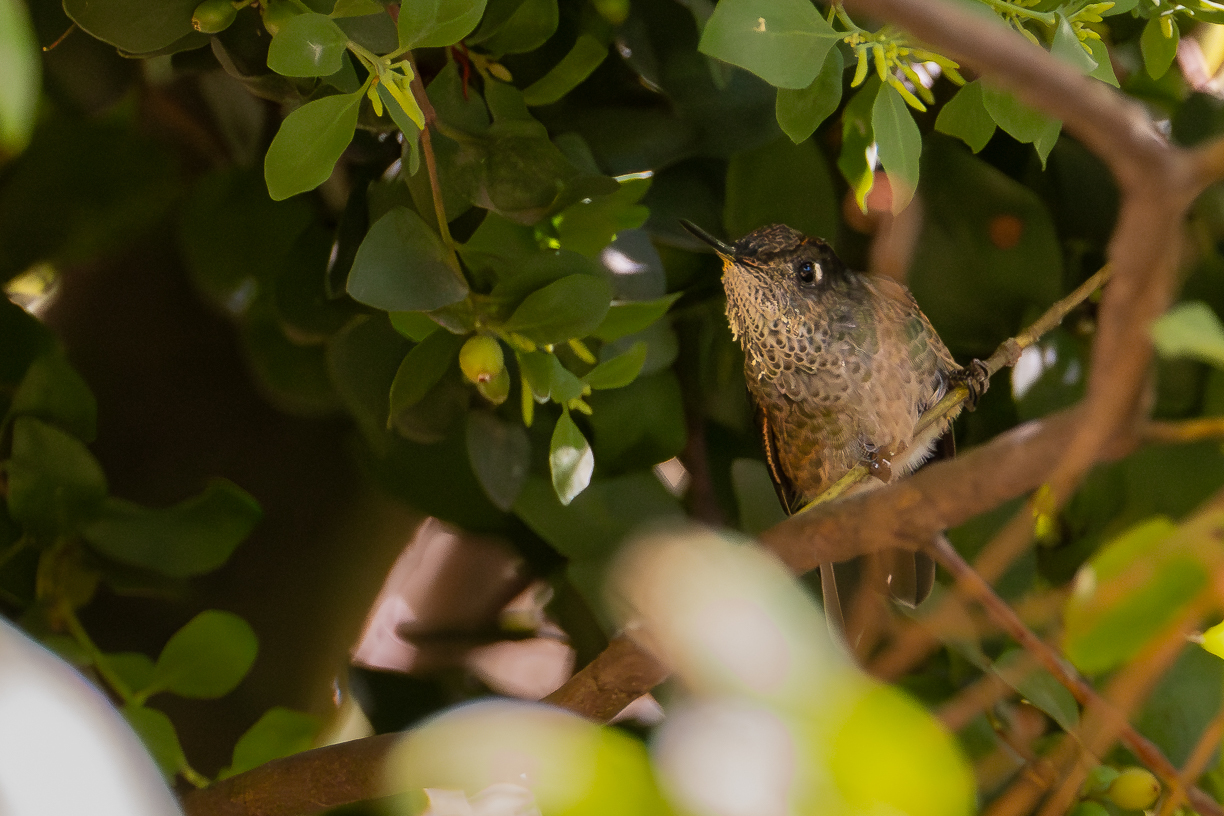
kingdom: Animalia
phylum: Chordata
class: Aves
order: Apodiformes
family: Trochilidae
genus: Sephanoides
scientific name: Sephanoides sephaniodes
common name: Green-backed firecrown
